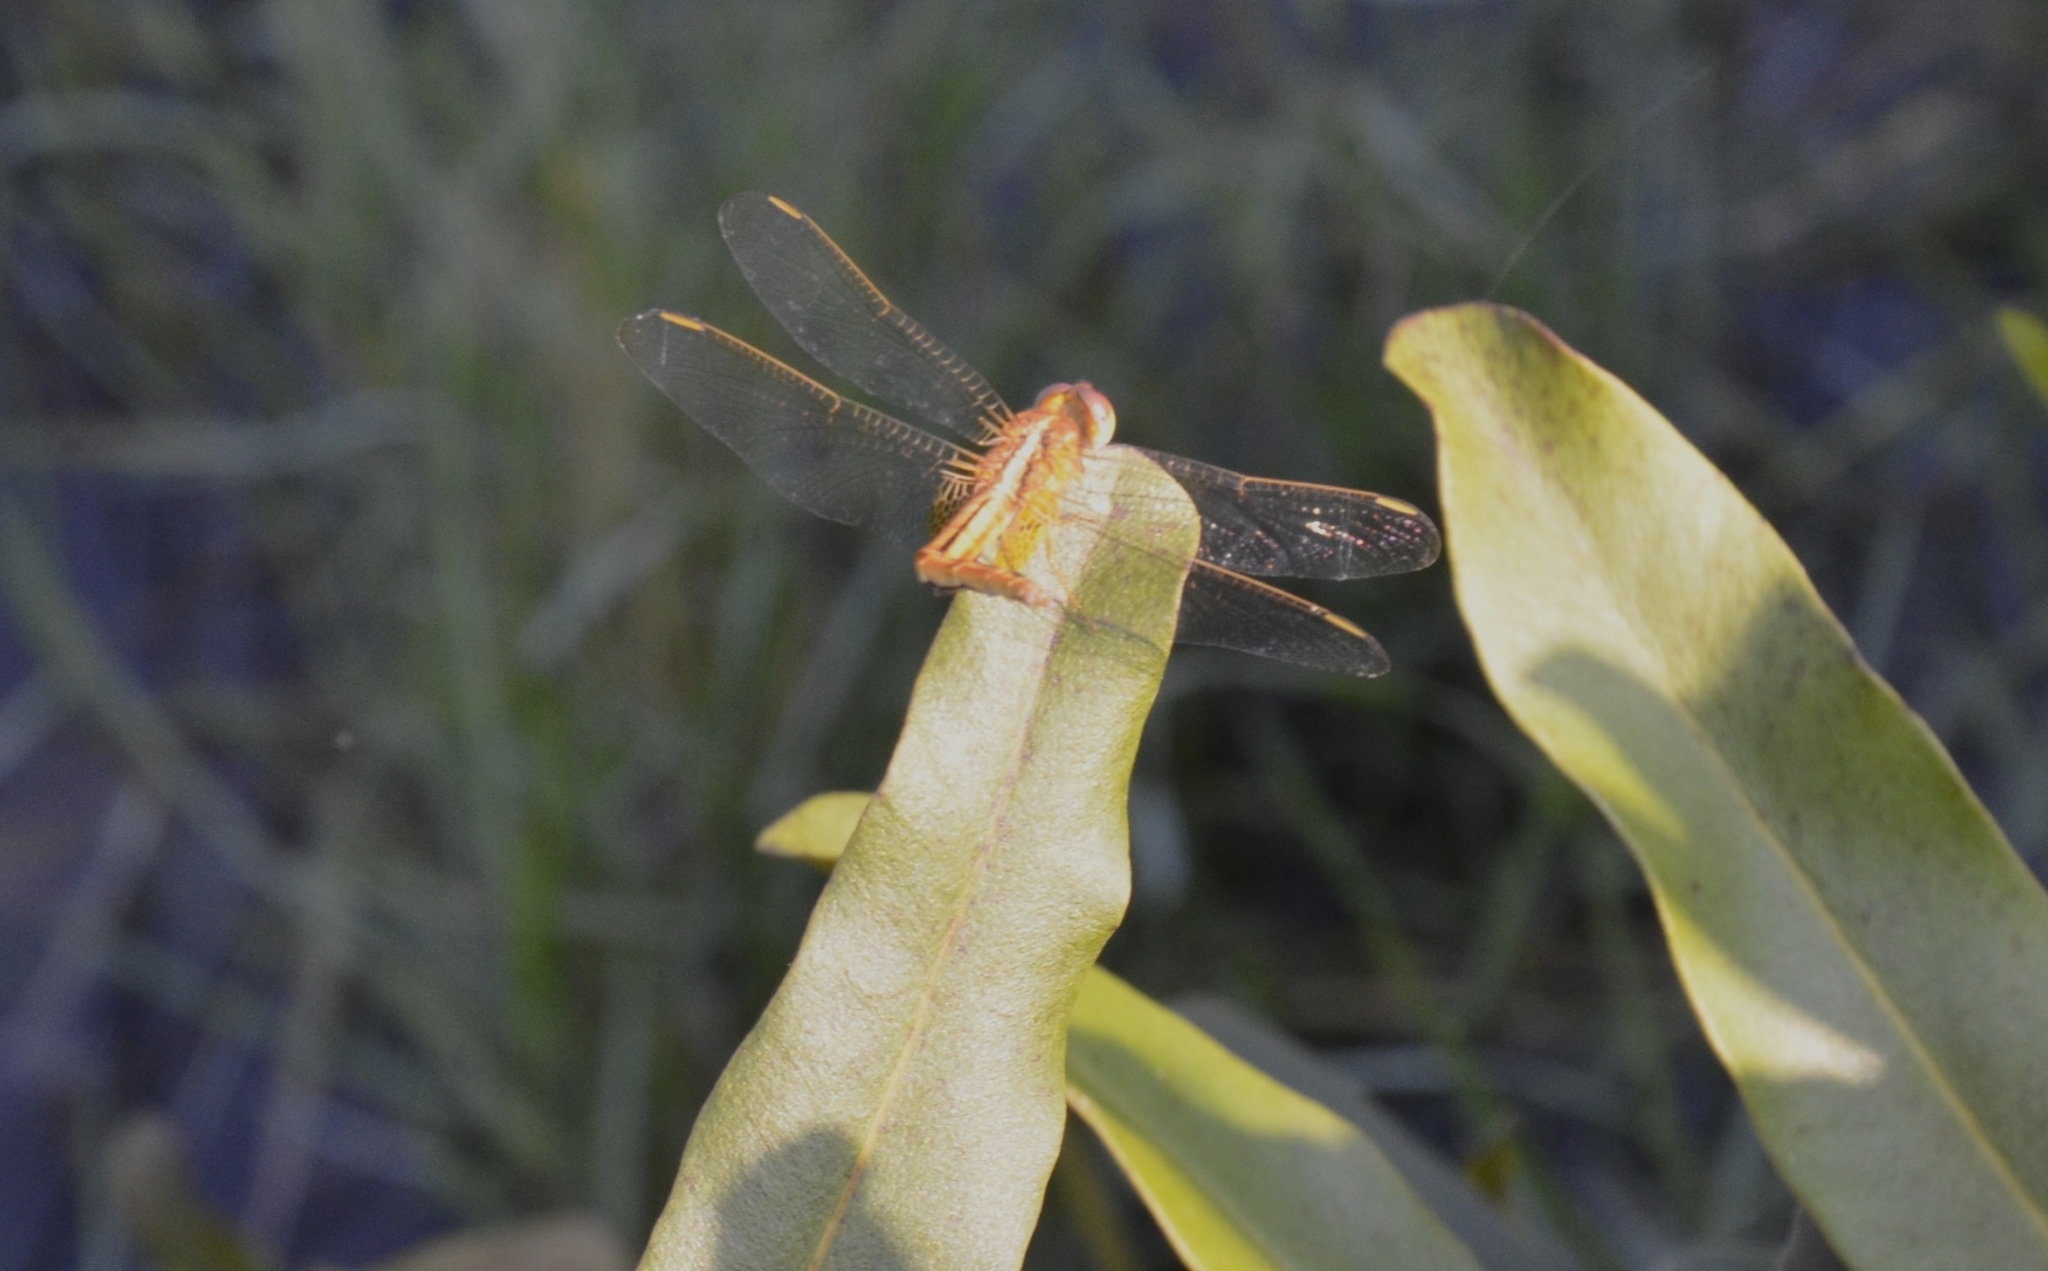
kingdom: Animalia
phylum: Arthropoda
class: Insecta
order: Odonata
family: Libellulidae
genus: Crocothemis
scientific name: Crocothemis servilia
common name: Scarlet skimmer
